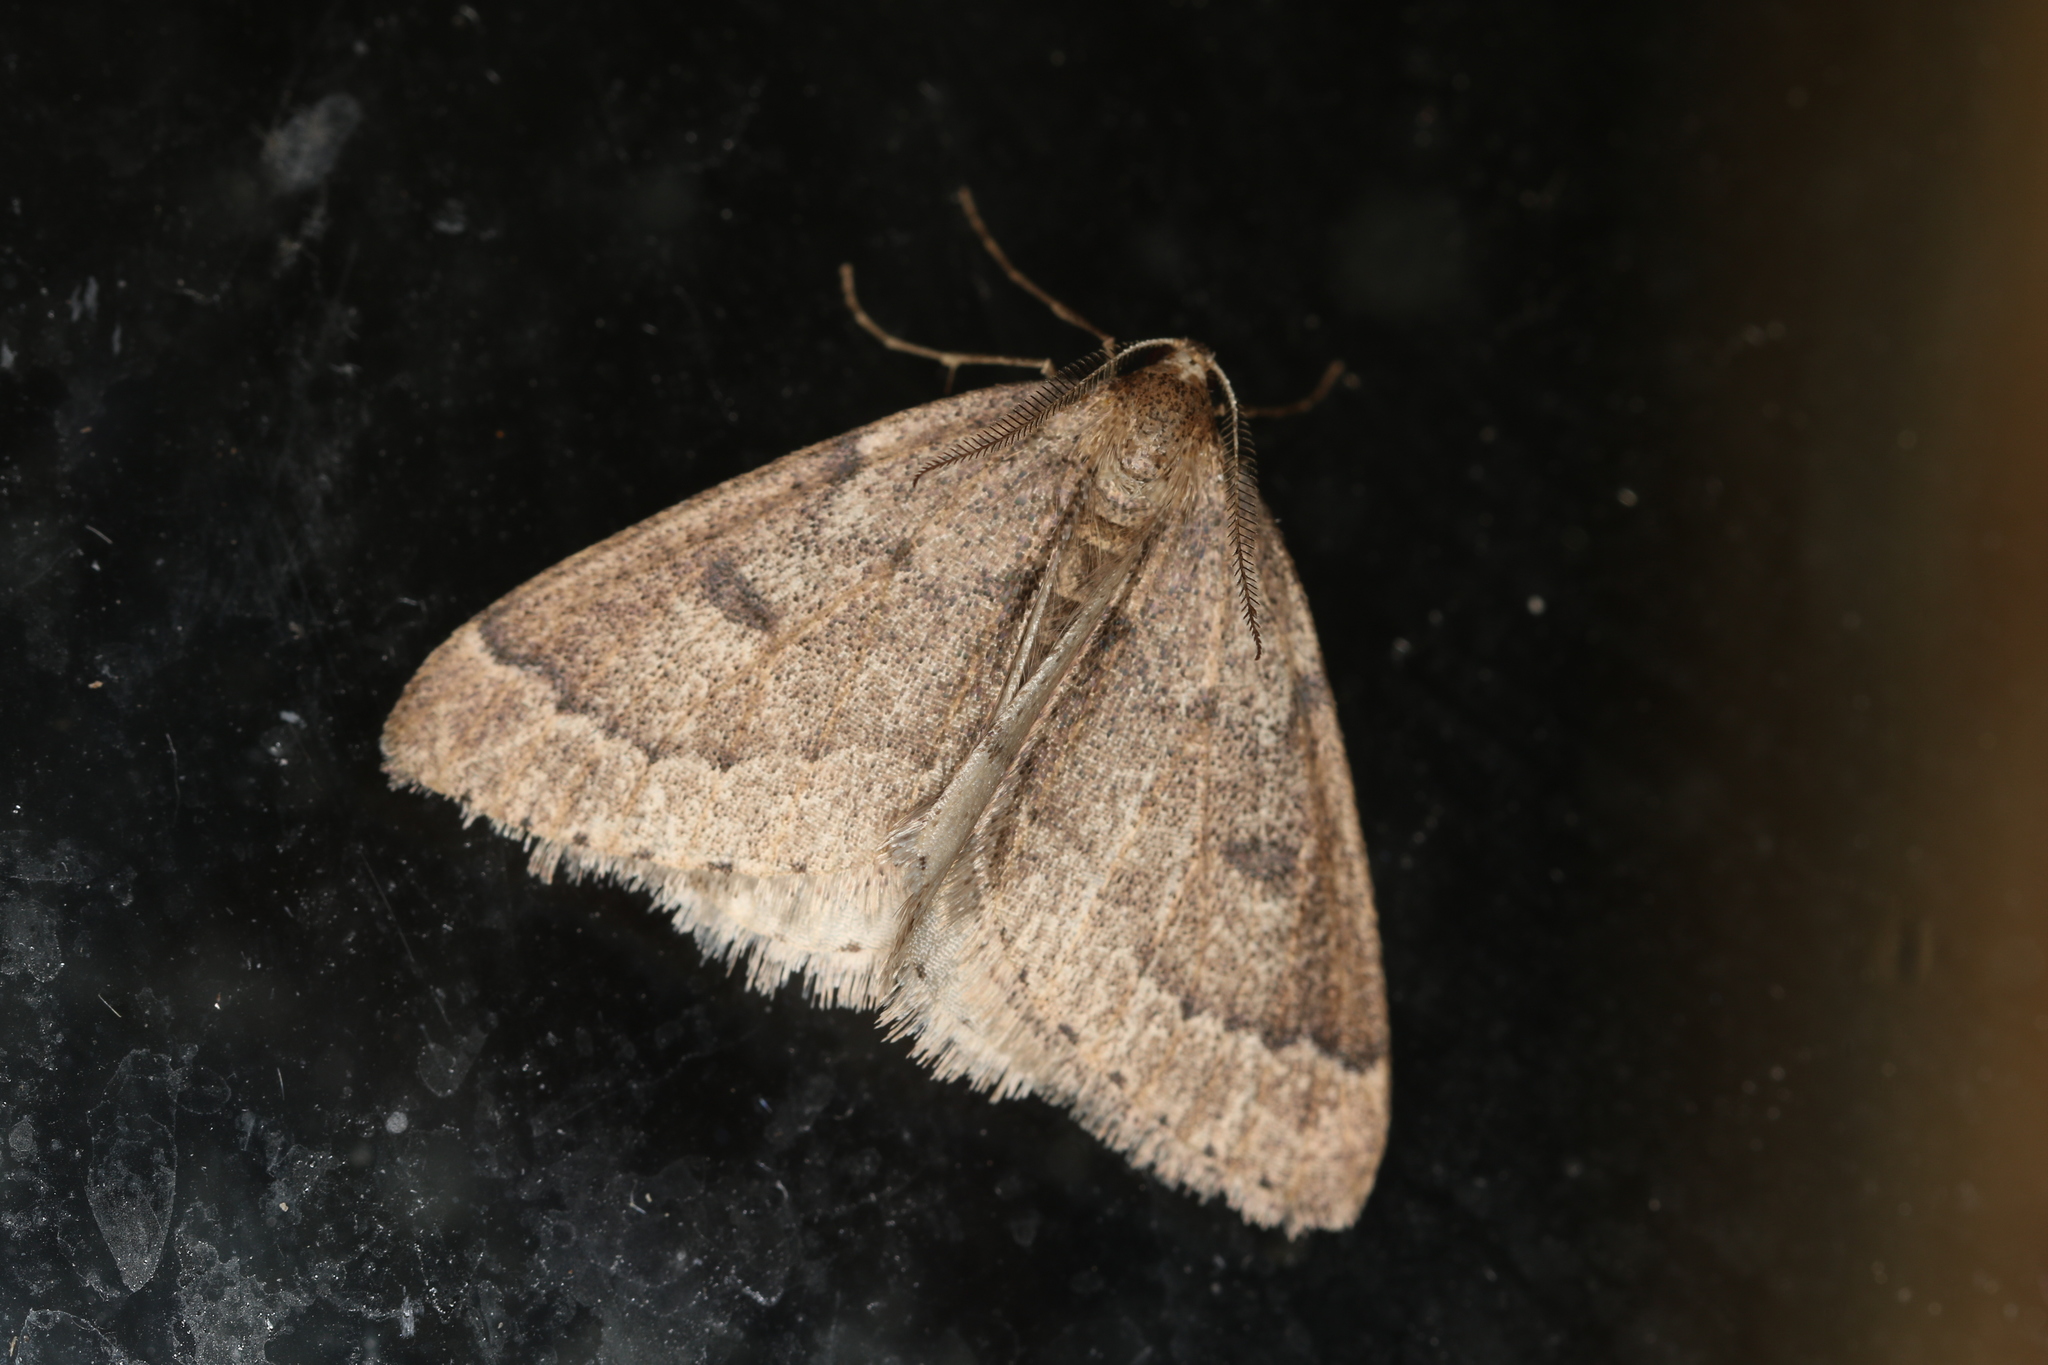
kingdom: Animalia
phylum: Arthropoda
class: Insecta
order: Lepidoptera
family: Geometridae
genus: Theria
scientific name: Theria rupicapraria
